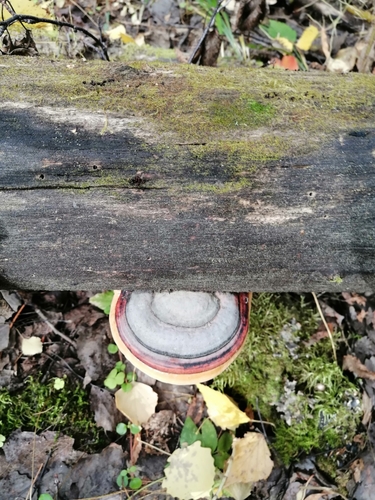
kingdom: Fungi
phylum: Basidiomycota
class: Agaricomycetes
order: Polyporales
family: Fomitopsidaceae
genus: Fomitopsis
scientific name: Fomitopsis pinicola
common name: Red-belted bracket
